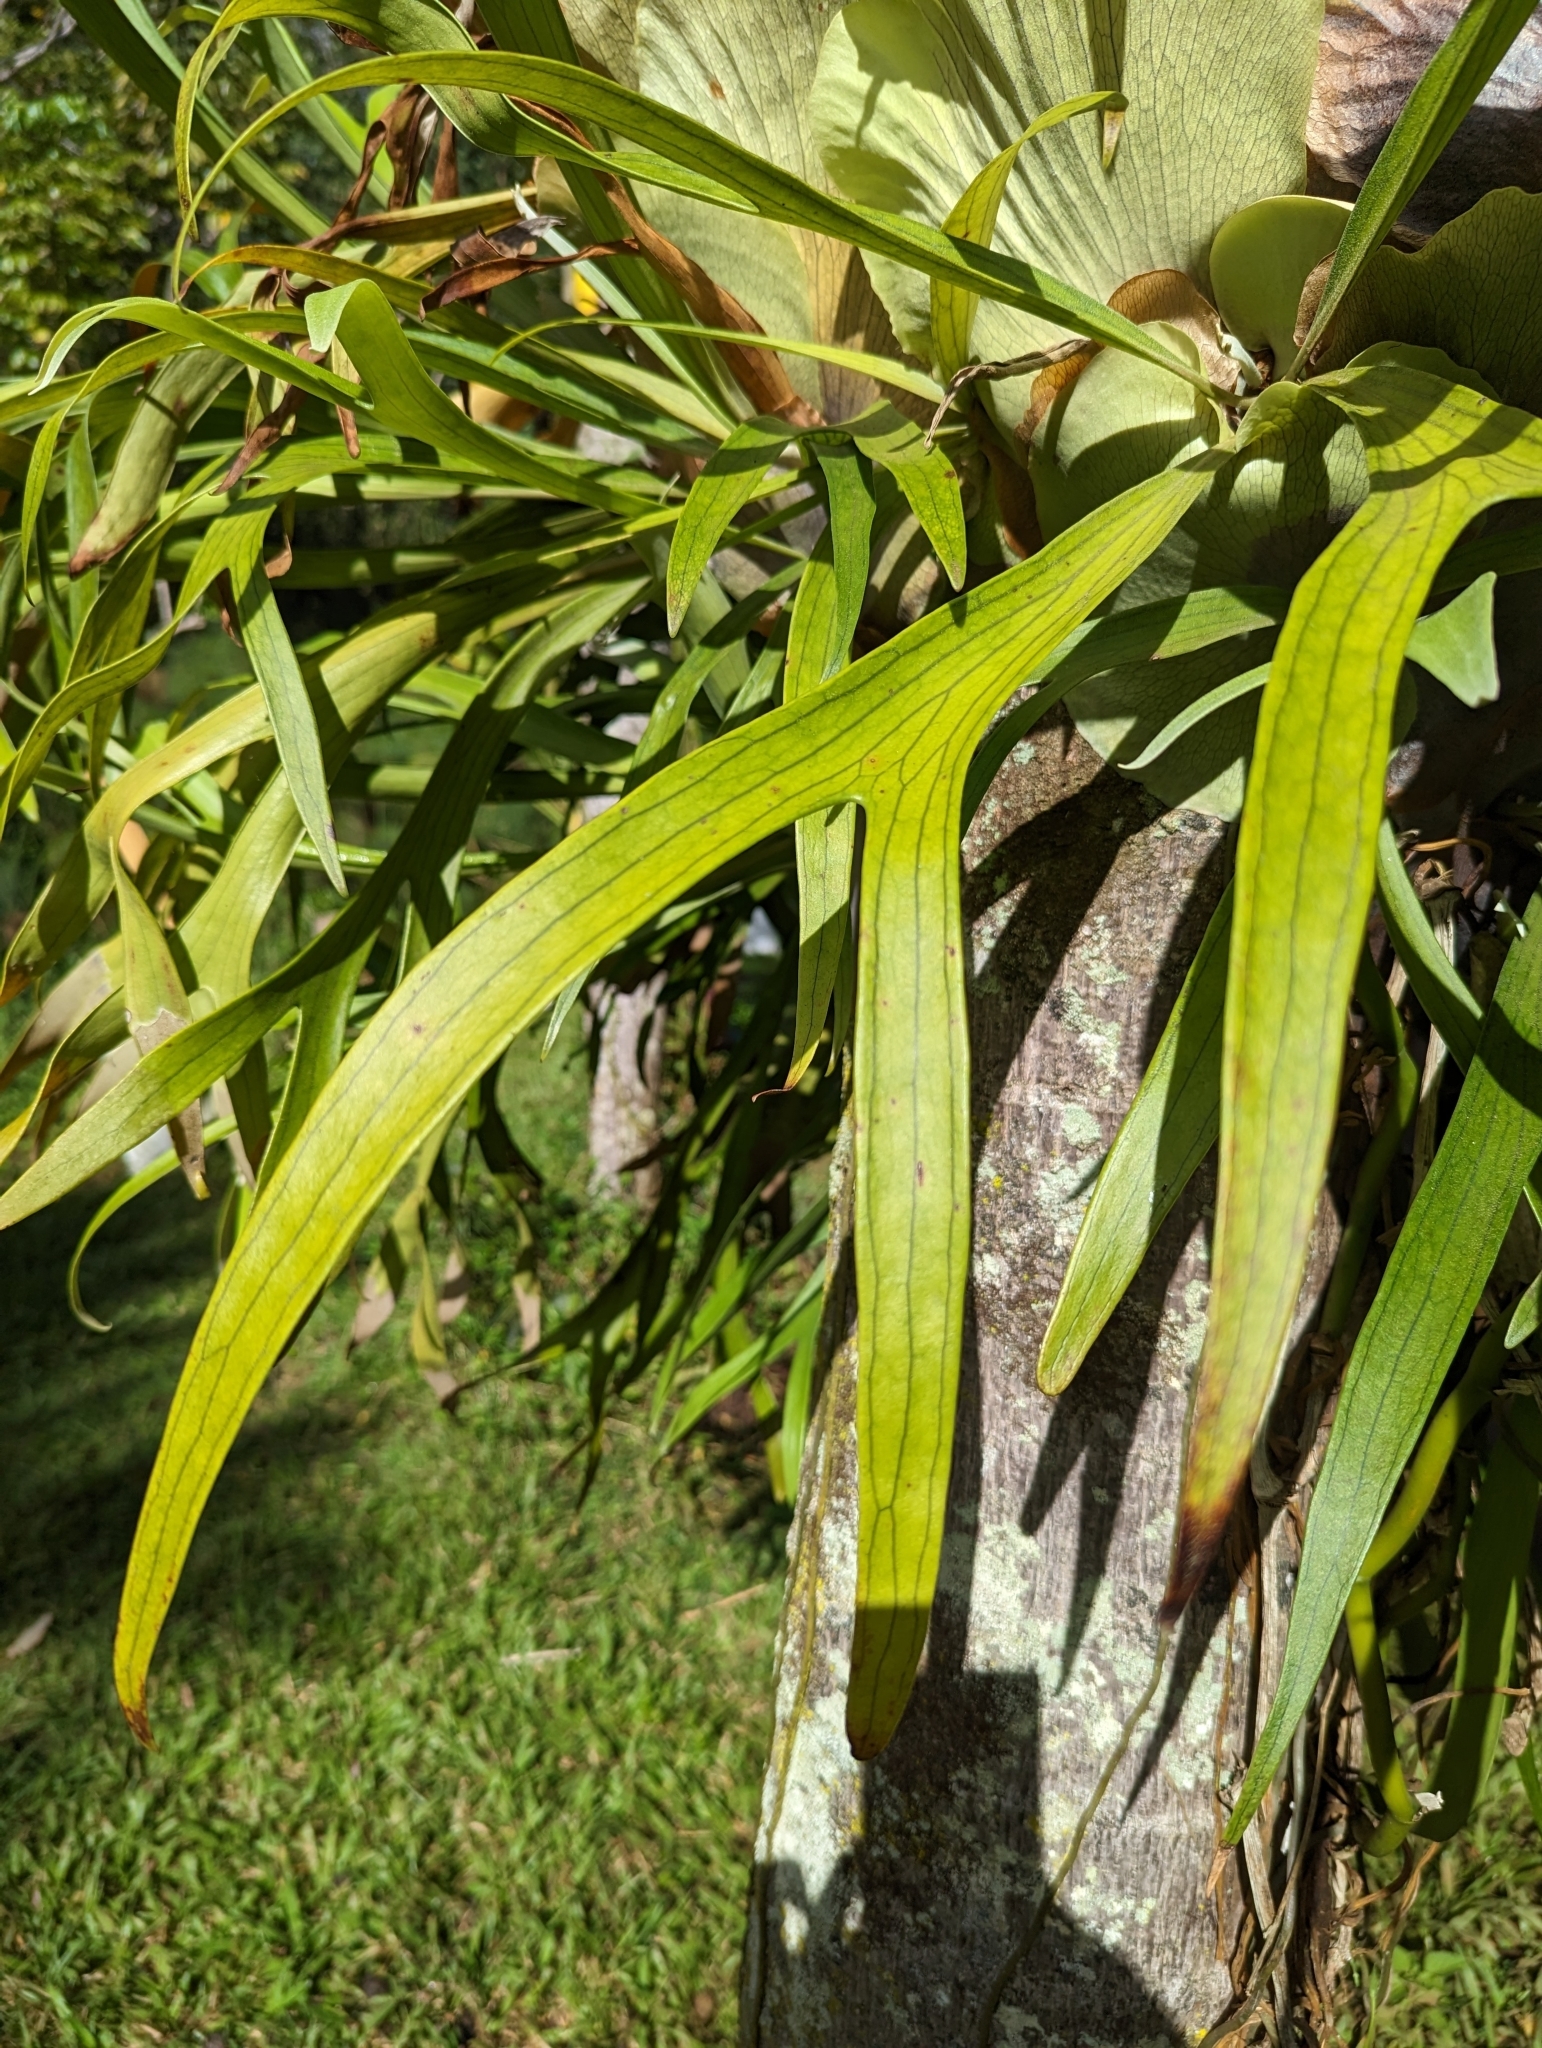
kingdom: Plantae
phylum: Tracheophyta
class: Polypodiopsida
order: Polypodiales
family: Polypodiaceae
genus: Platycerium
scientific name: Platycerium bifurcatum
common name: Elkhorn fern
